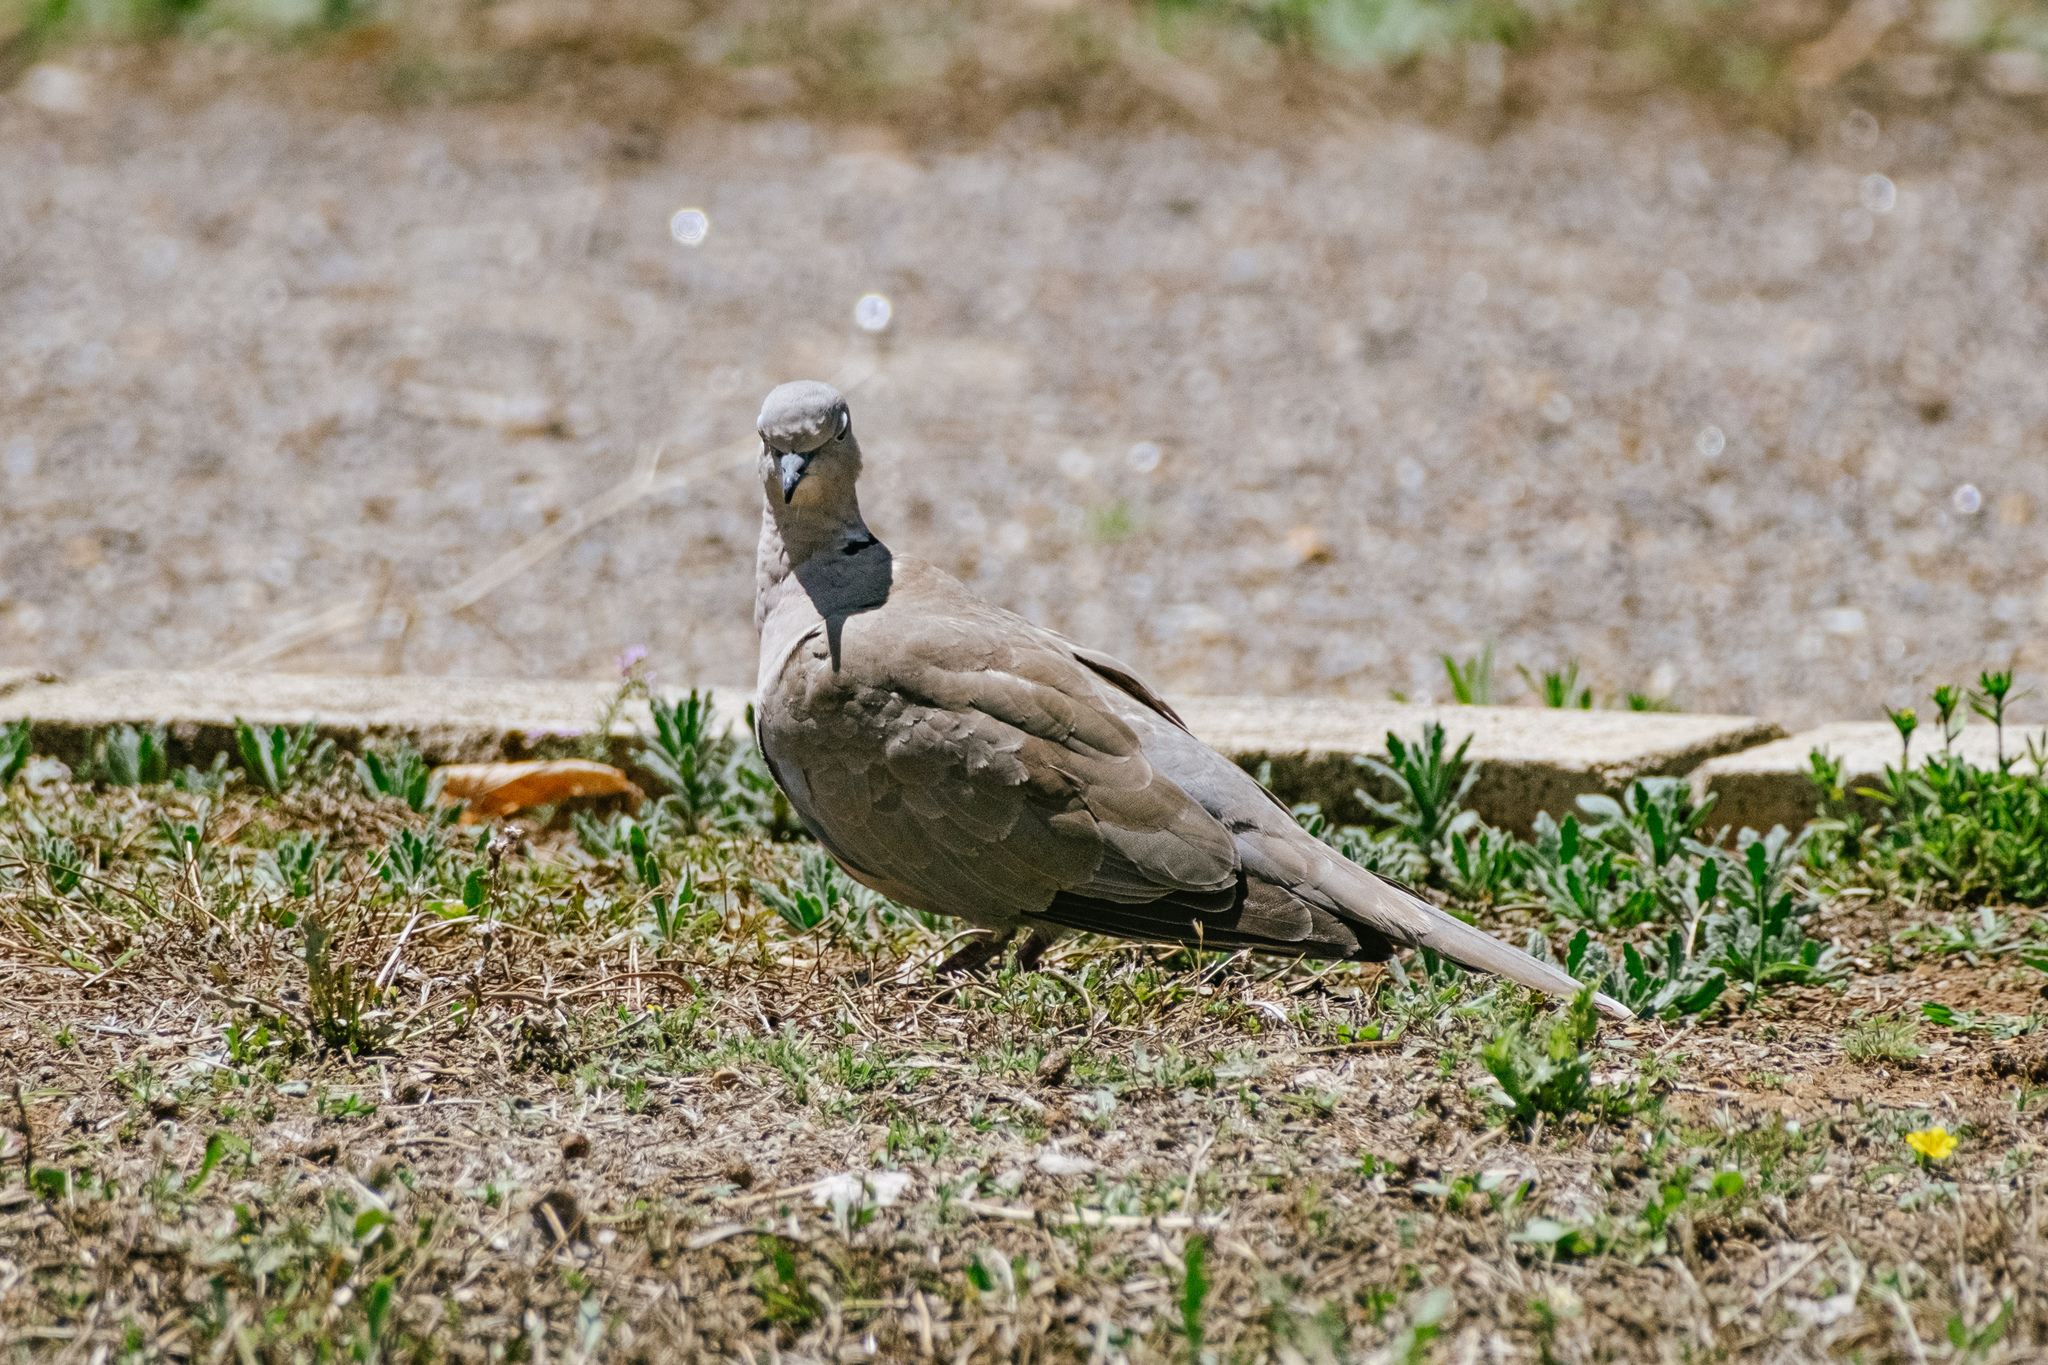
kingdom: Animalia
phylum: Chordata
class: Aves
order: Columbiformes
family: Columbidae
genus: Streptopelia
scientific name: Streptopelia decaocto
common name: Eurasian collared dove
